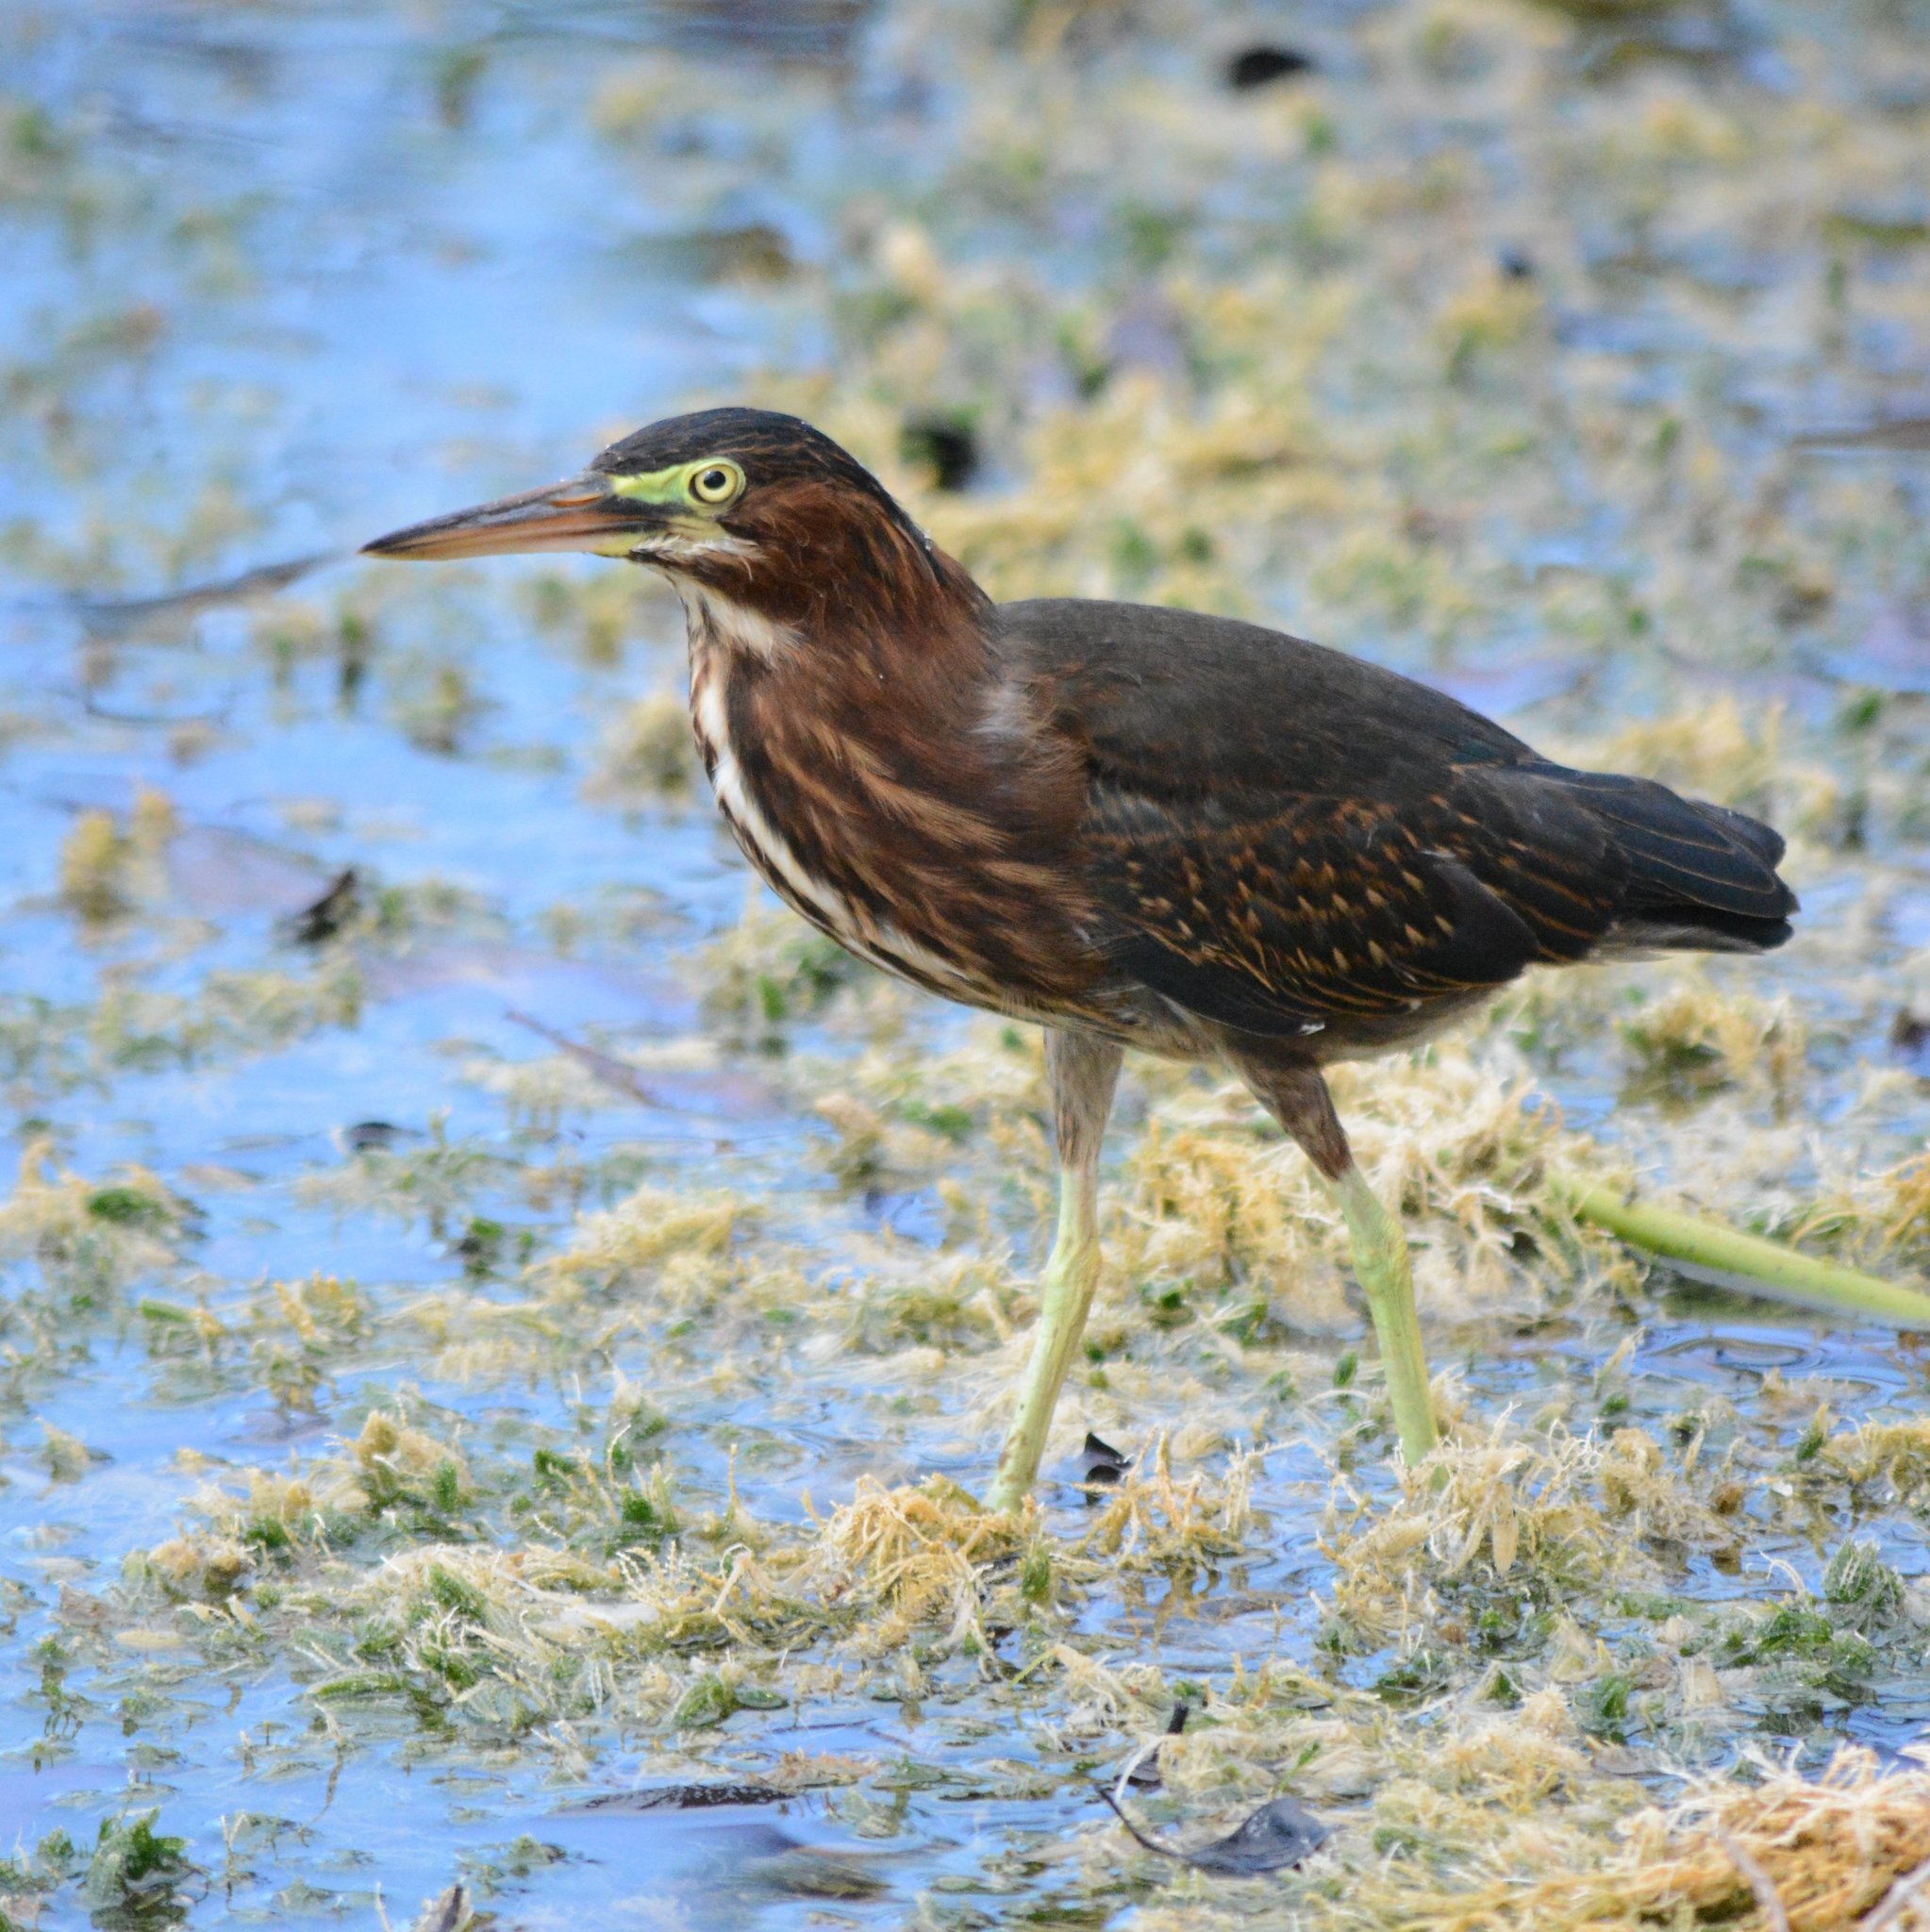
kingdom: Animalia
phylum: Chordata
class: Aves
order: Pelecaniformes
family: Ardeidae
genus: Butorides
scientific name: Butorides virescens
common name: Green heron
